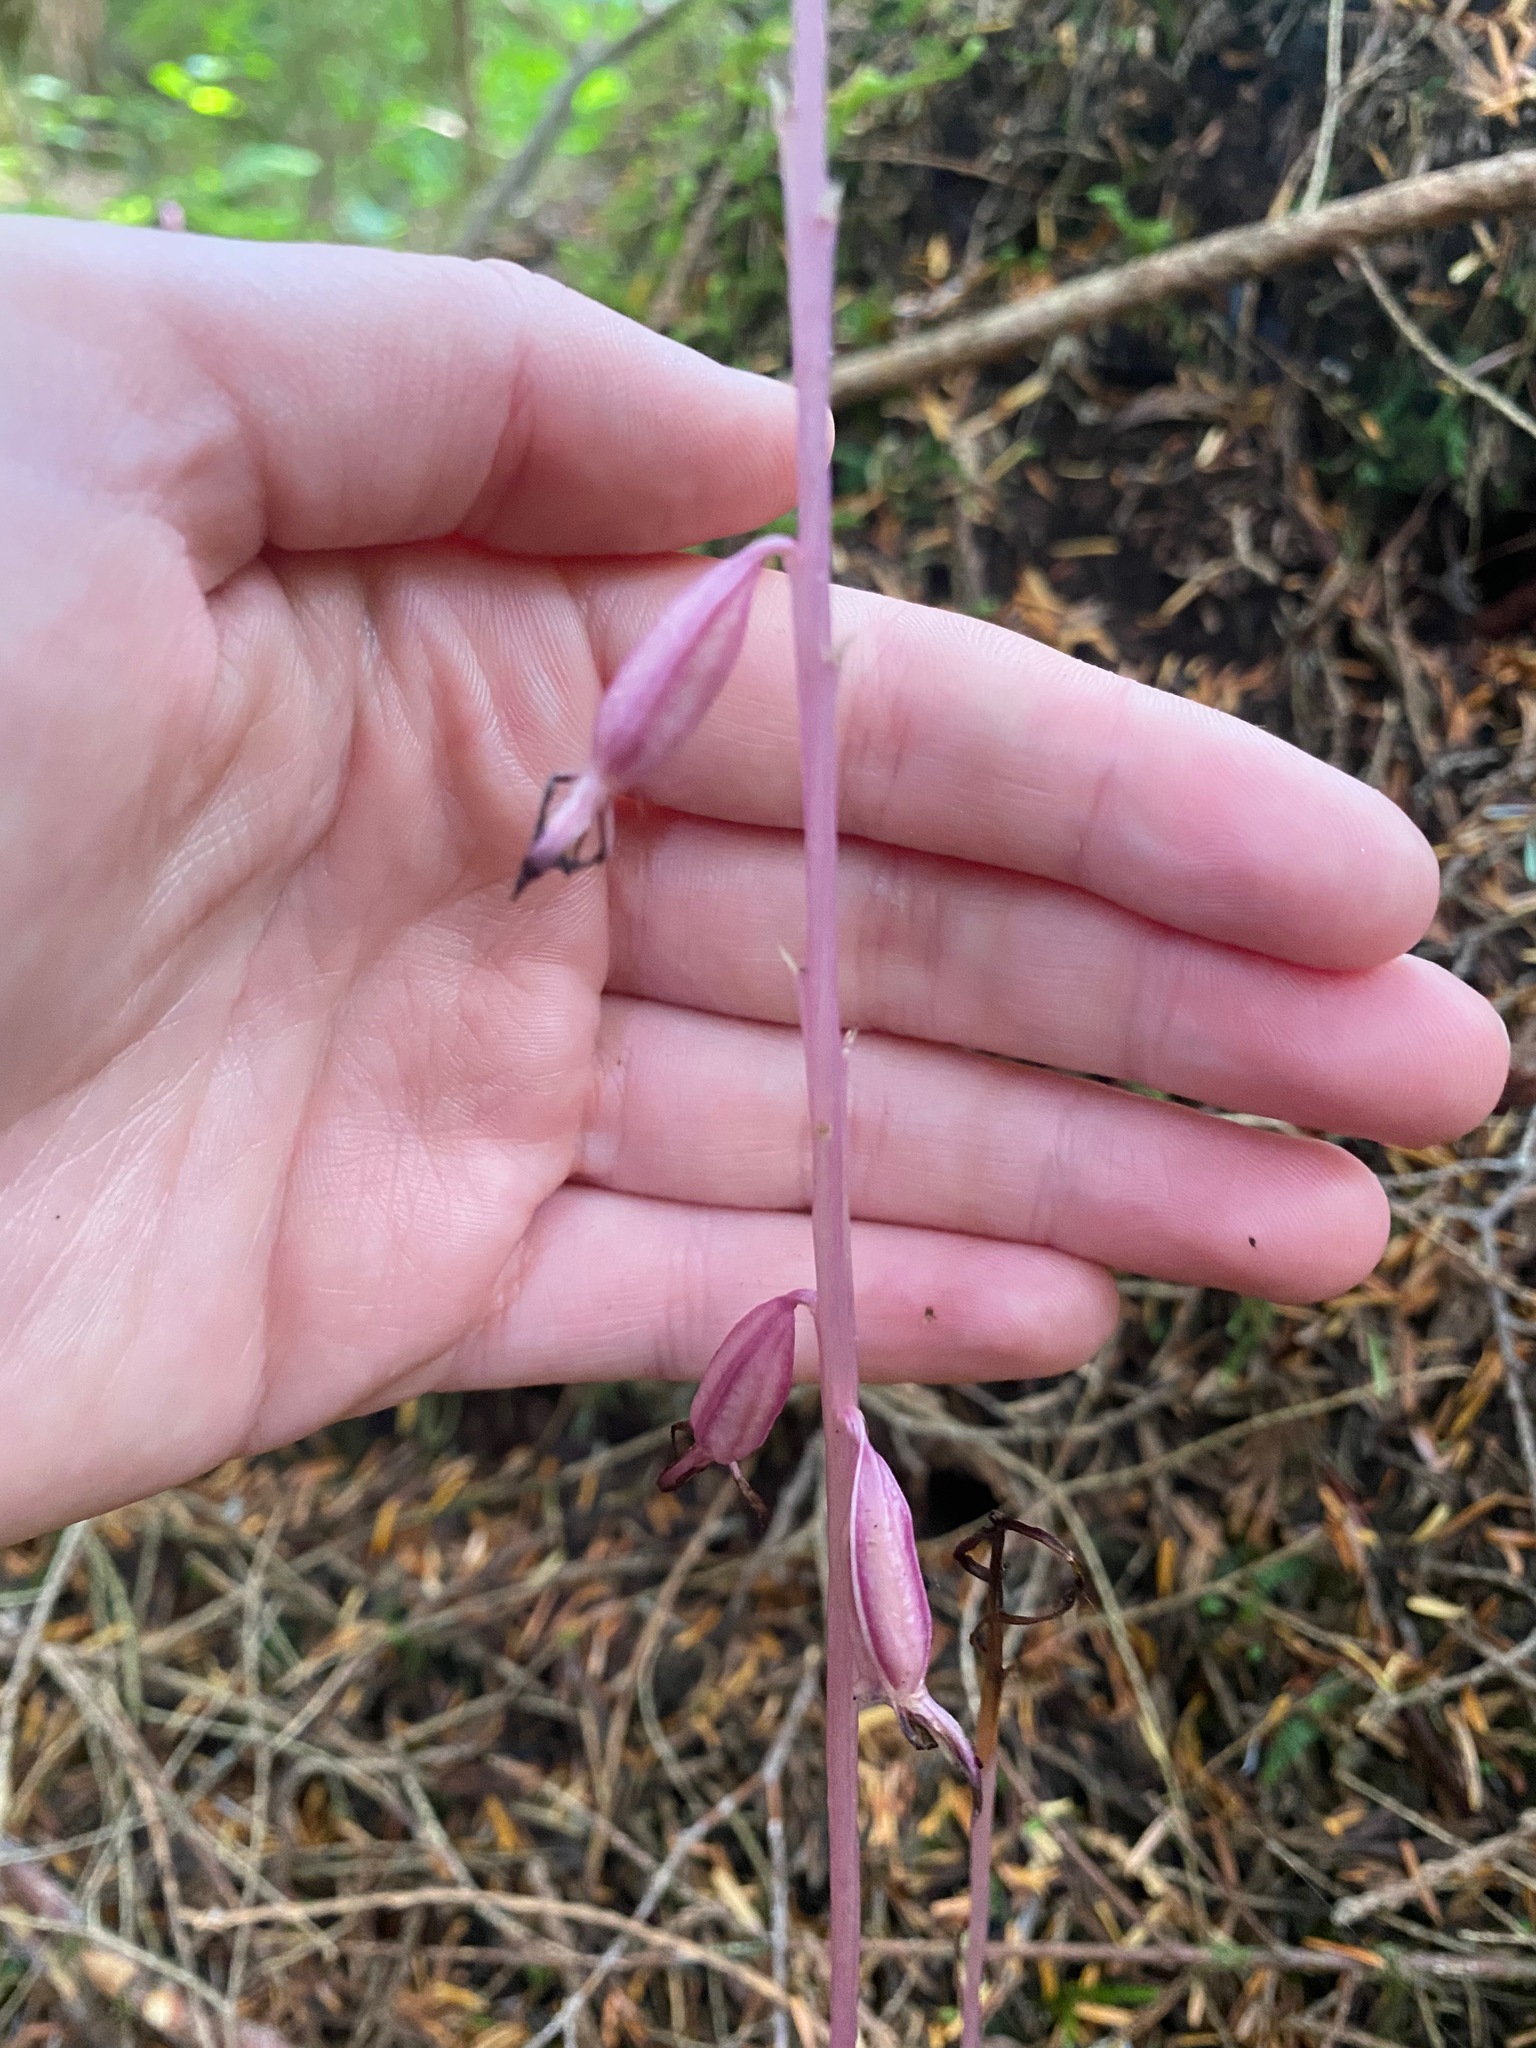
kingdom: Plantae
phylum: Tracheophyta
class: Liliopsida
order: Asparagales
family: Orchidaceae
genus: Corallorhiza
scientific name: Corallorhiza mertensiana
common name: Pacific coralroot
